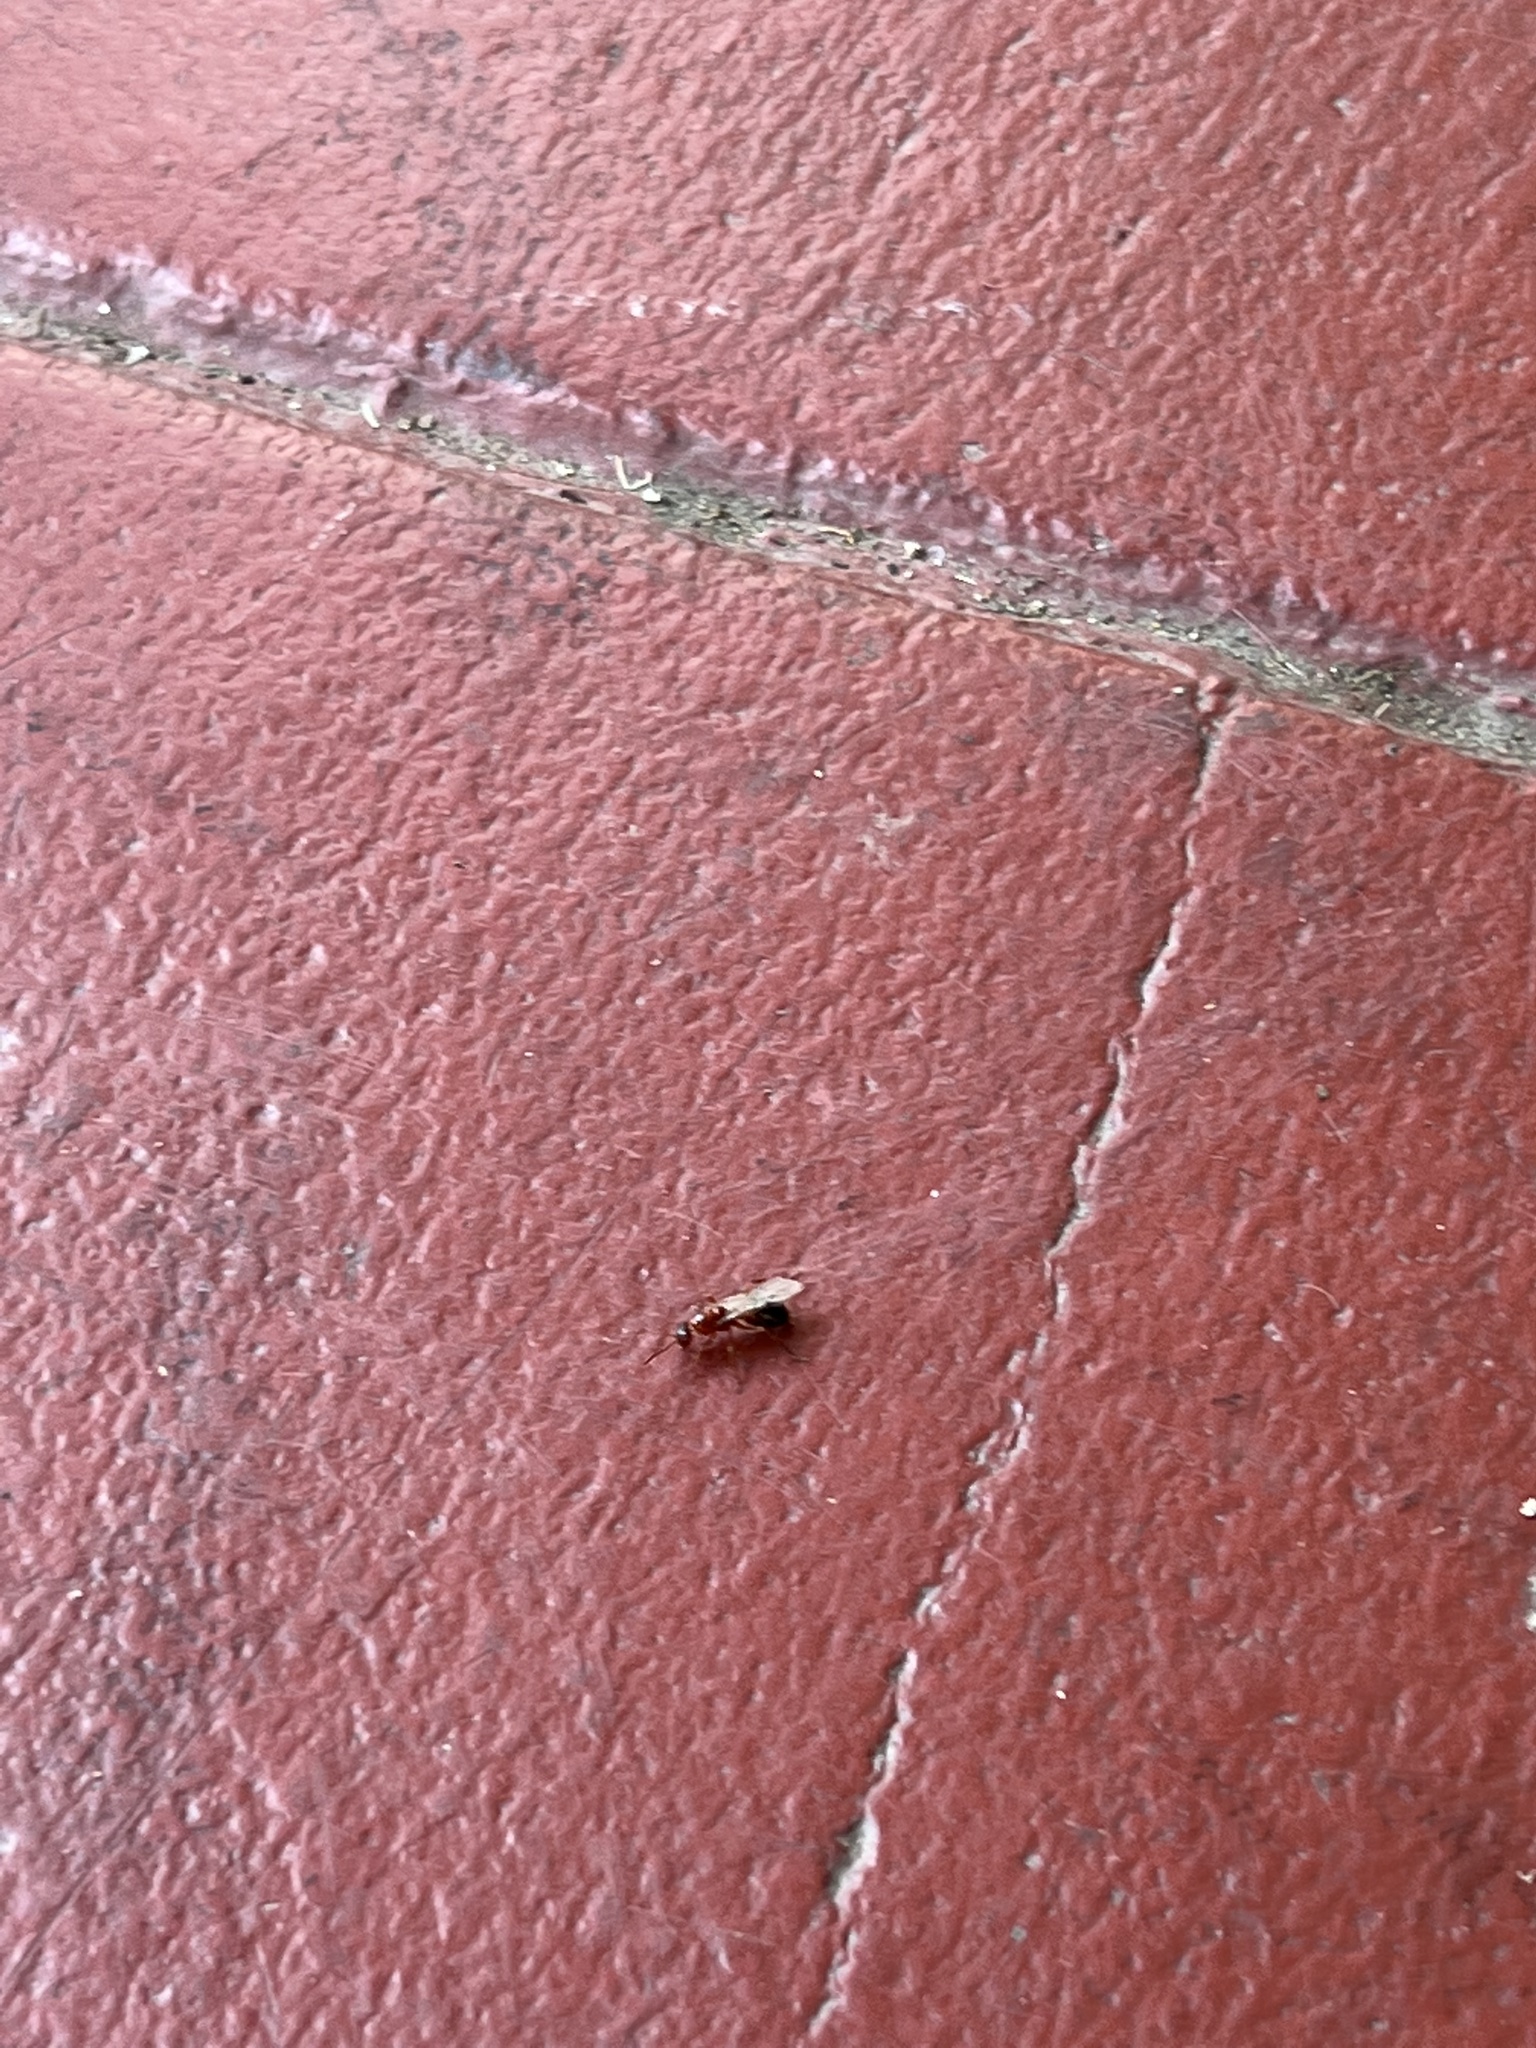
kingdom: Animalia
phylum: Arthropoda
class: Insecta
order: Hymenoptera
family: Formicidae
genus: Formica
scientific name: Formica
